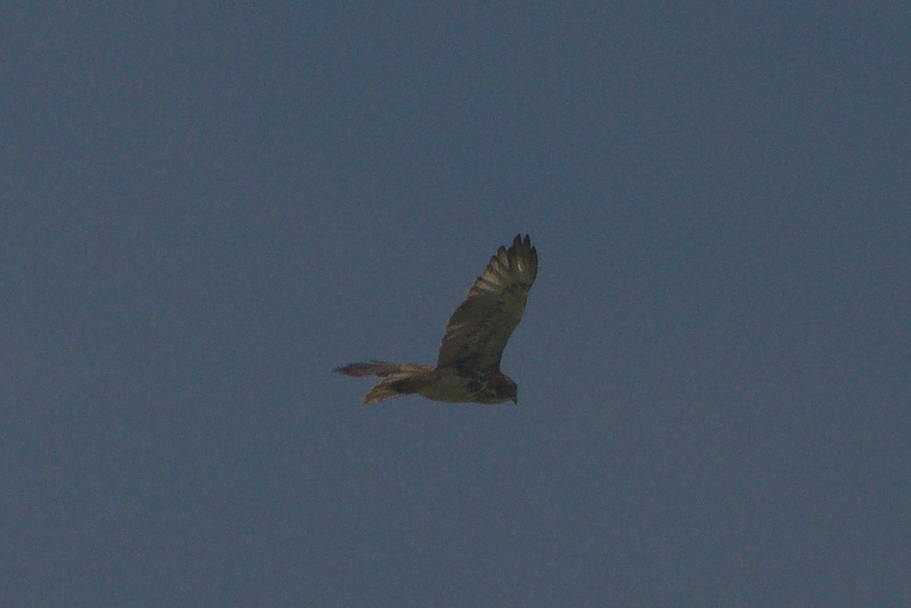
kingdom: Animalia
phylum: Chordata
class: Aves
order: Accipitriformes
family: Accipitridae
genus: Buteo
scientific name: Buteo solitarius
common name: Hawaiian hawk
